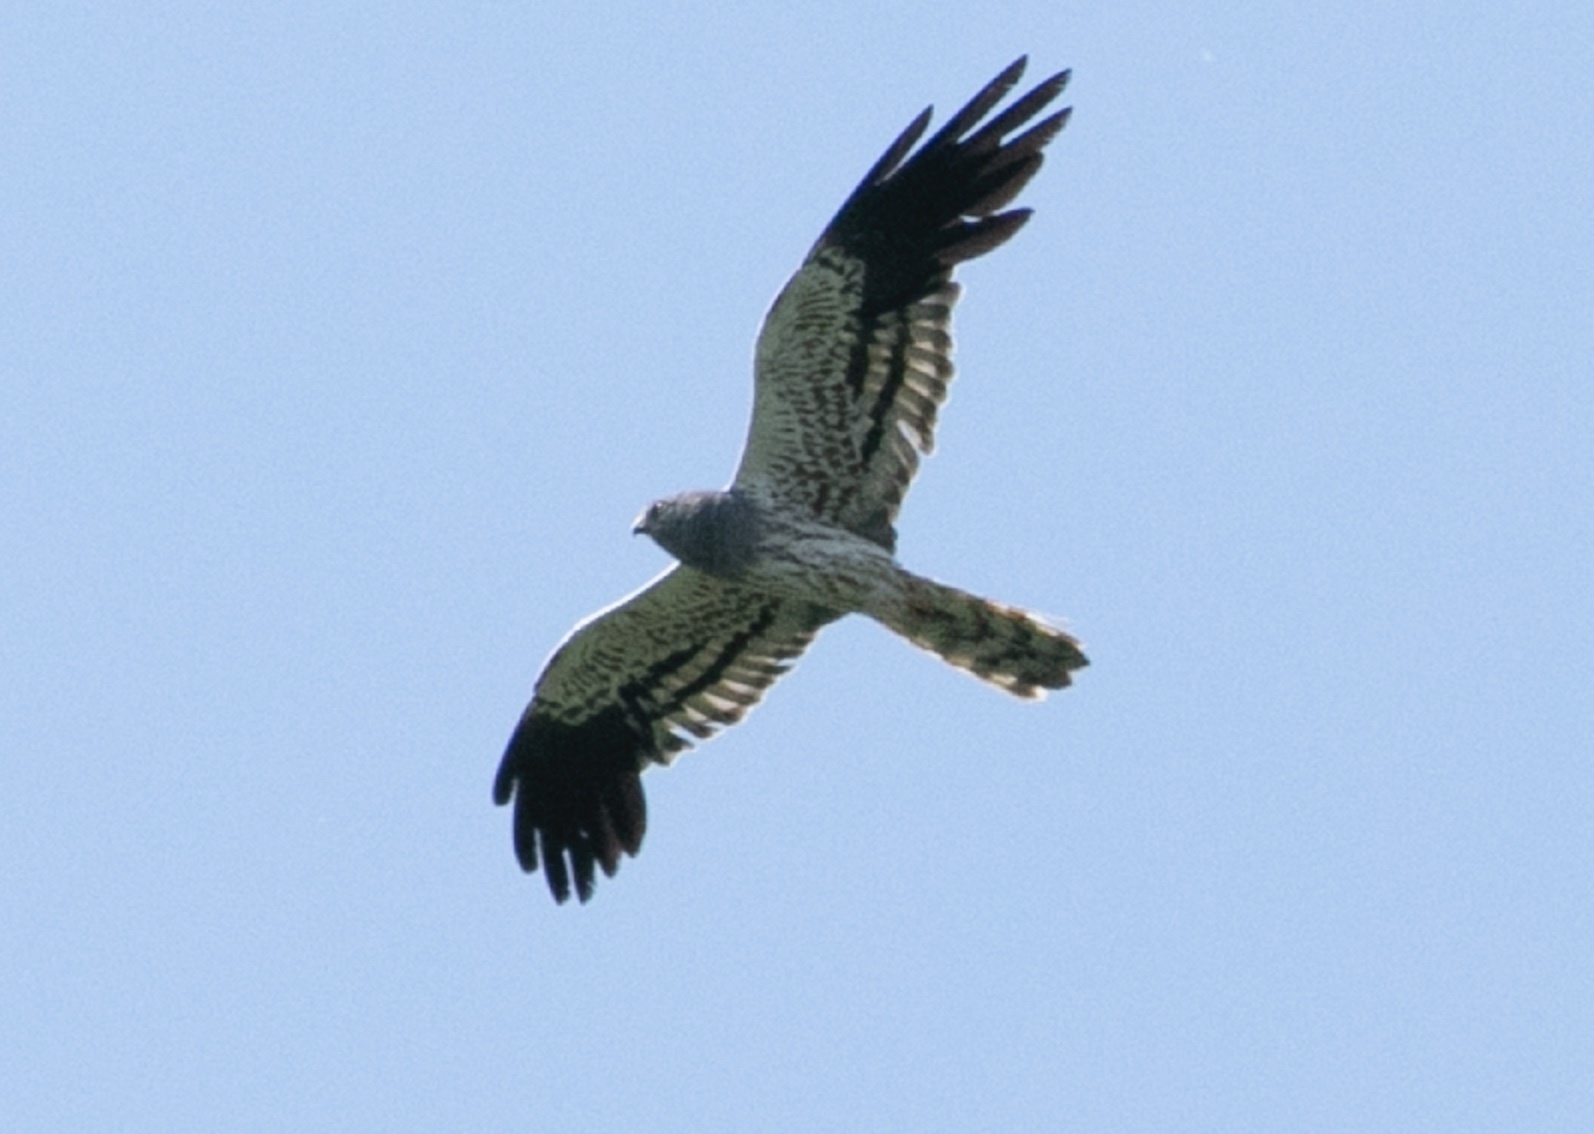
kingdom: Animalia
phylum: Chordata
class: Aves
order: Accipitriformes
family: Accipitridae
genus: Circus
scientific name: Circus pygargus
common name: Montagu's harrier
